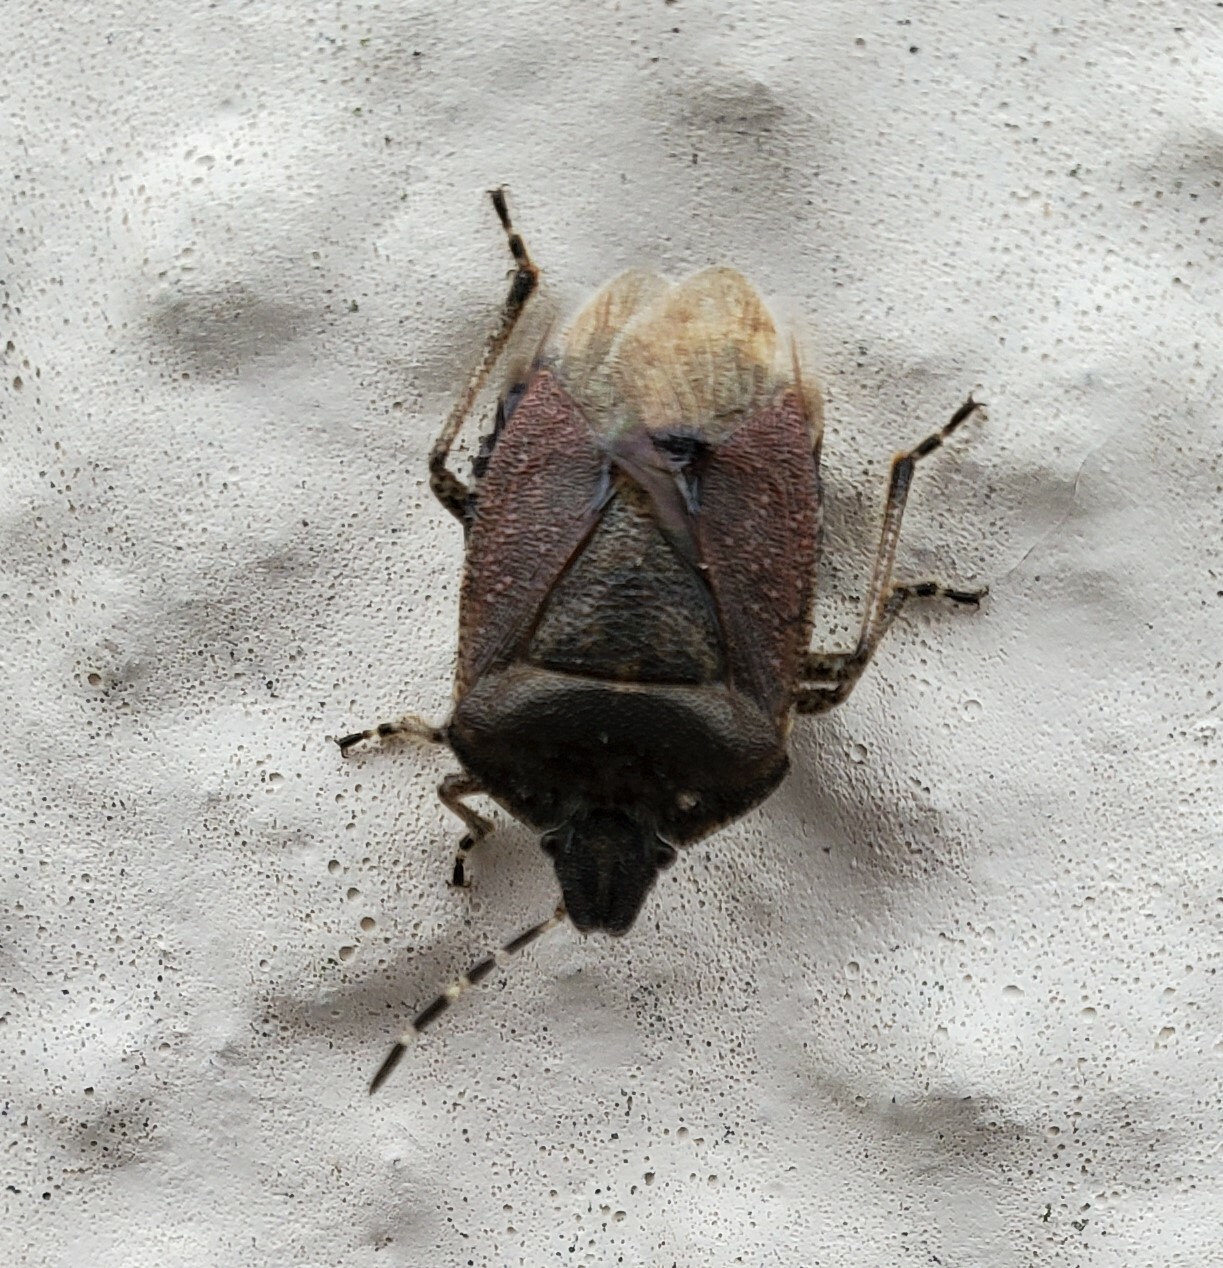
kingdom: Animalia
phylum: Arthropoda
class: Insecta
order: Hemiptera
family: Pentatomidae
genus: Dolycoris
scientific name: Dolycoris baccarum
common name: Sloe bug
